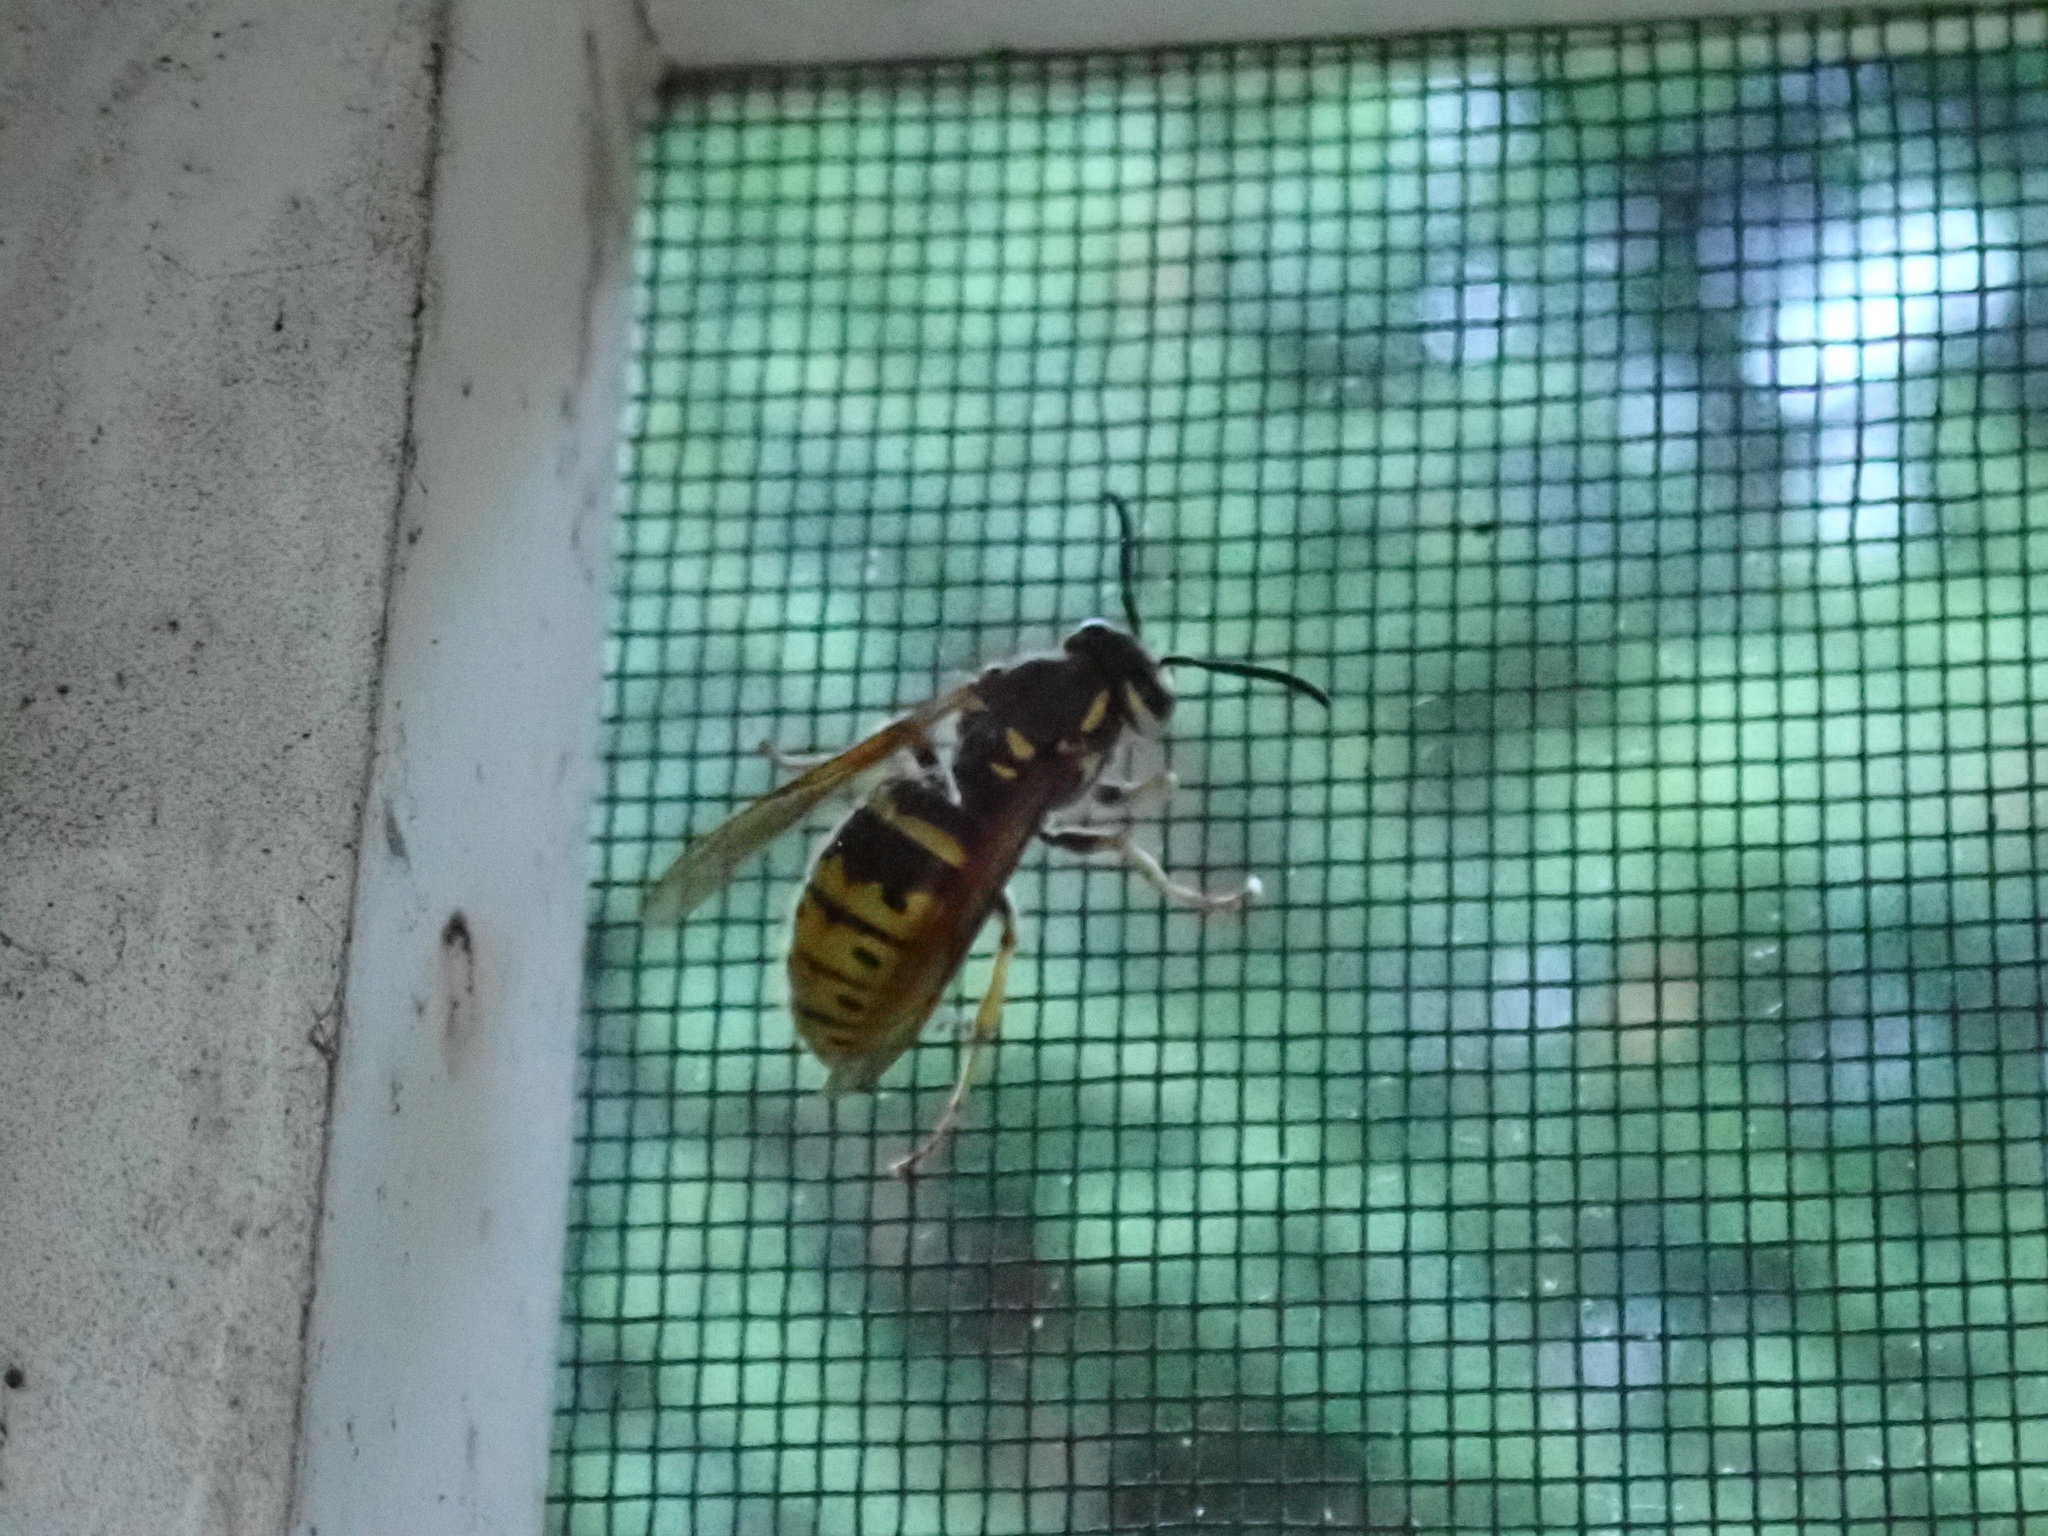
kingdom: Animalia
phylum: Arthropoda
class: Insecta
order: Hymenoptera
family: Vespidae
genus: Vespula
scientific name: Vespula flavopilosa
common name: Downy yellowjacket
